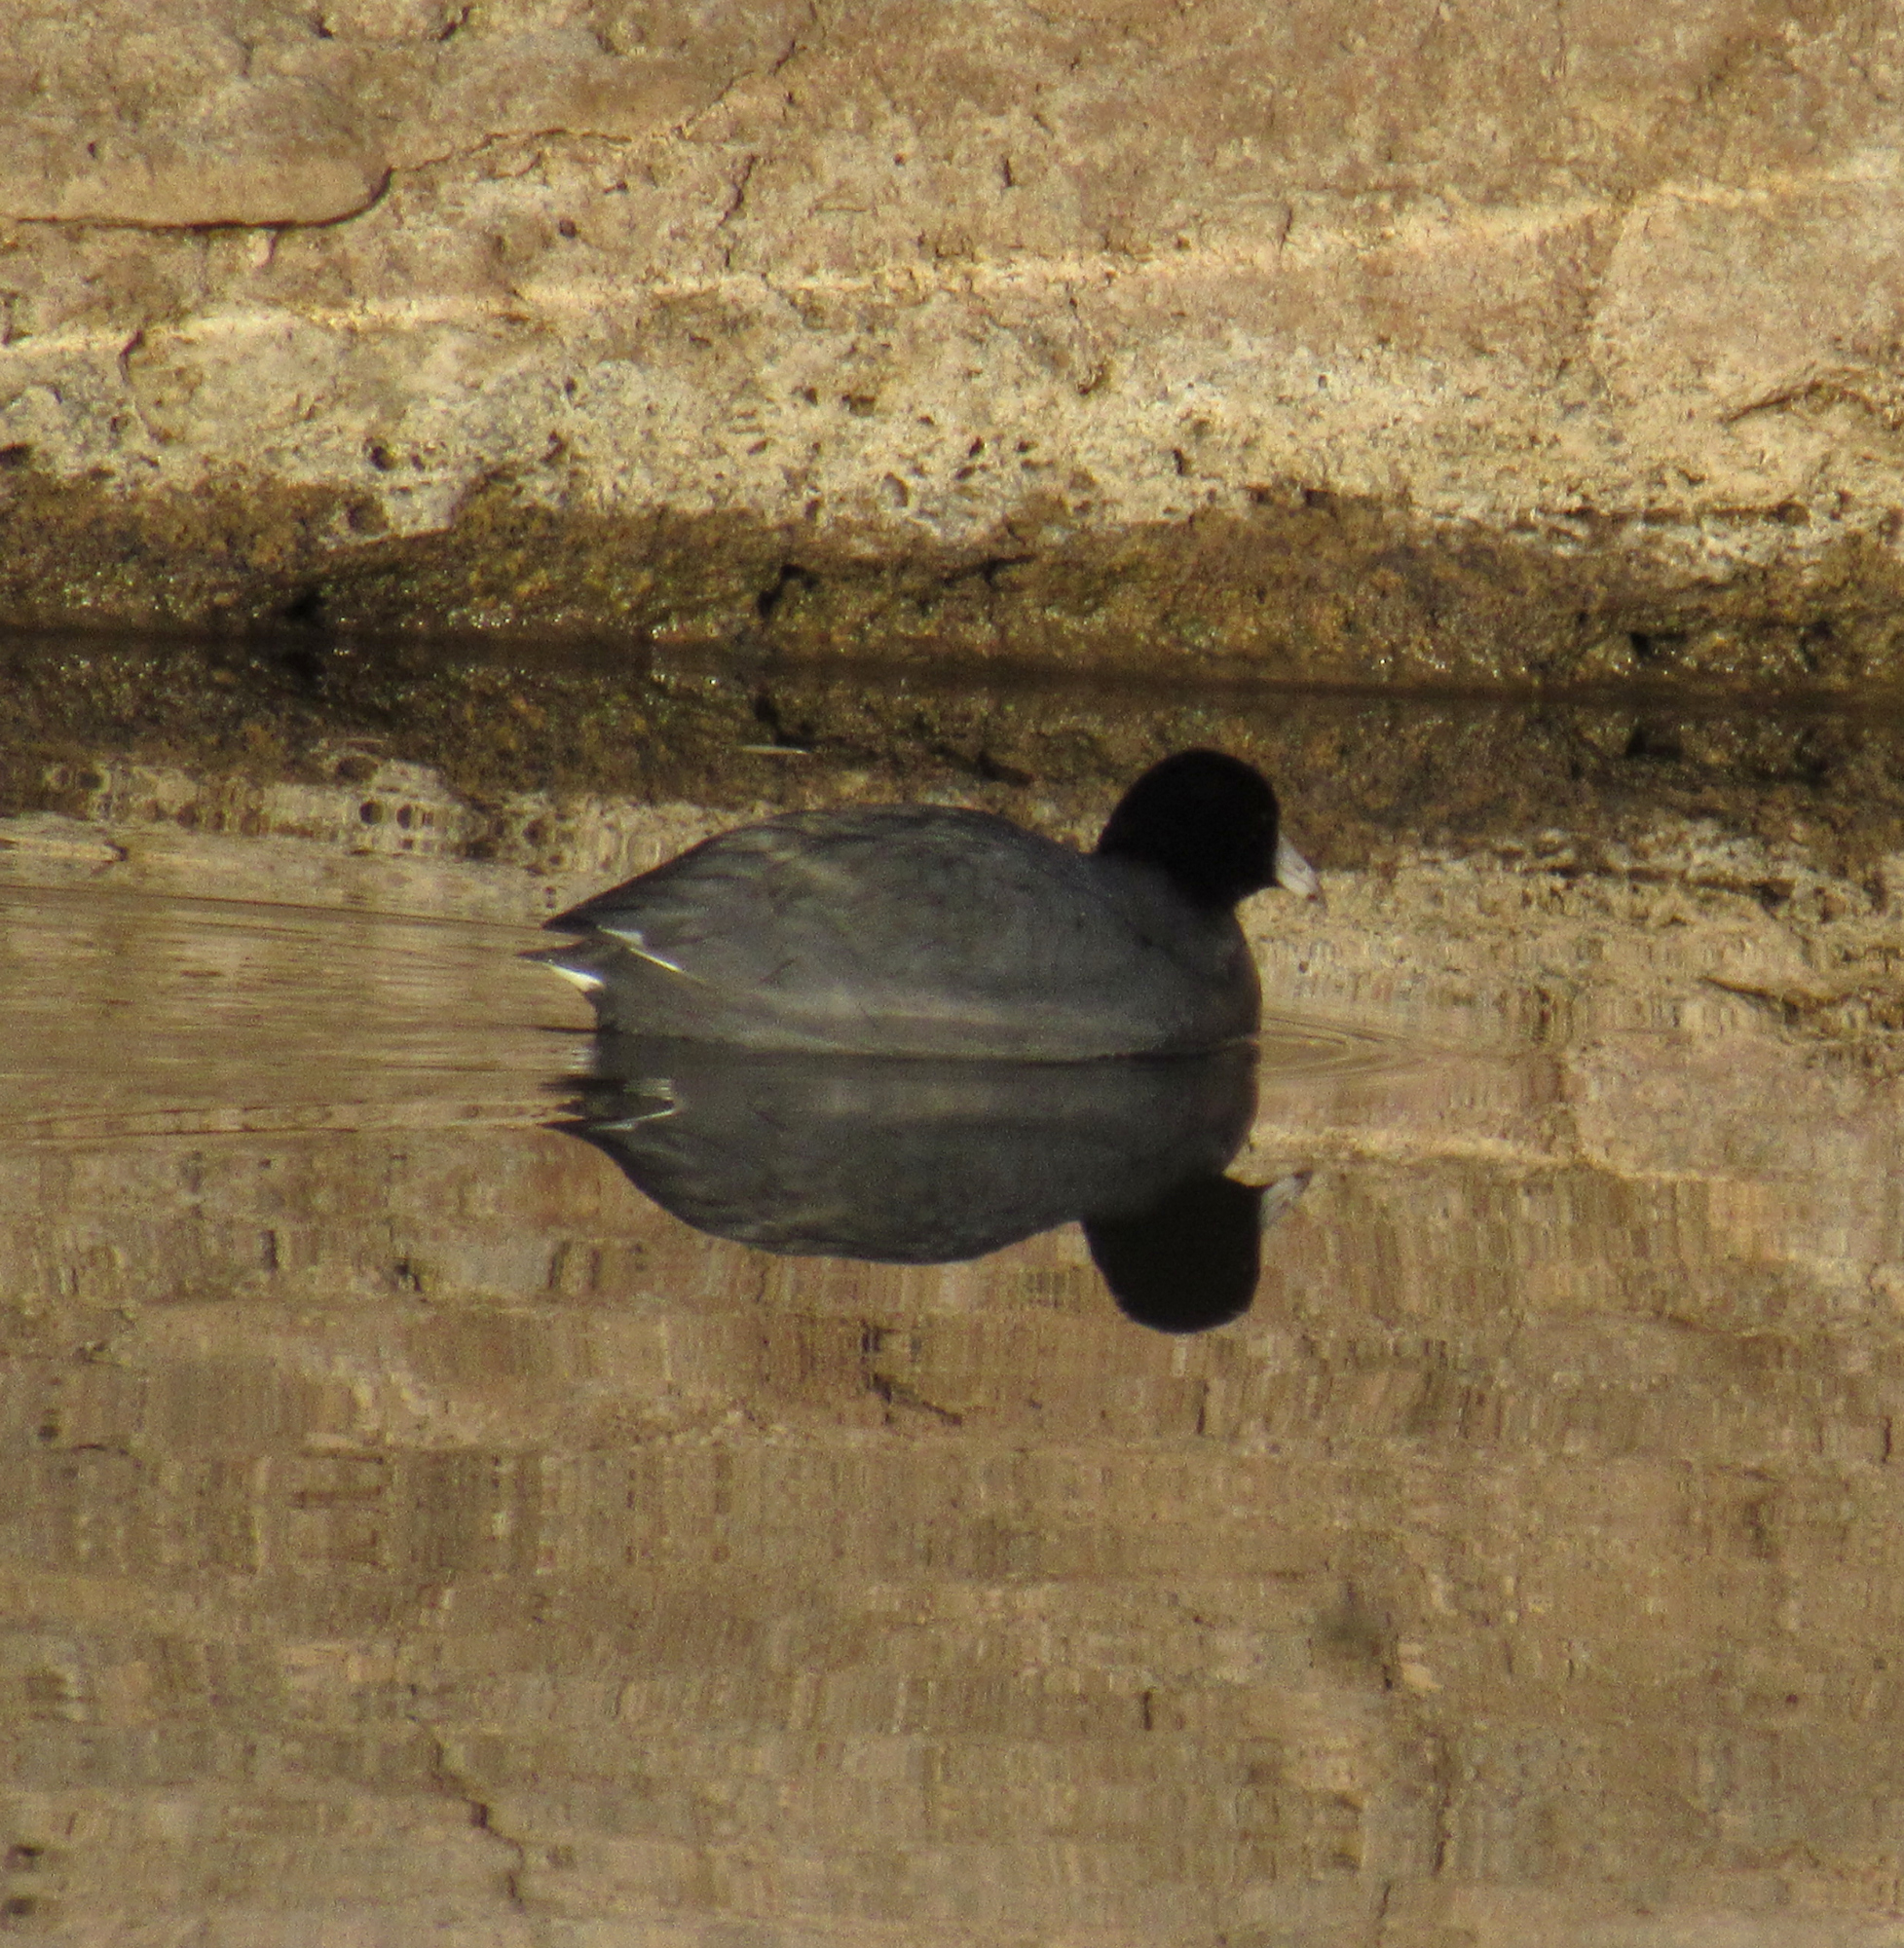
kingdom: Animalia
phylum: Chordata
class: Aves
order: Gruiformes
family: Rallidae
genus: Fulica
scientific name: Fulica americana
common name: American coot
